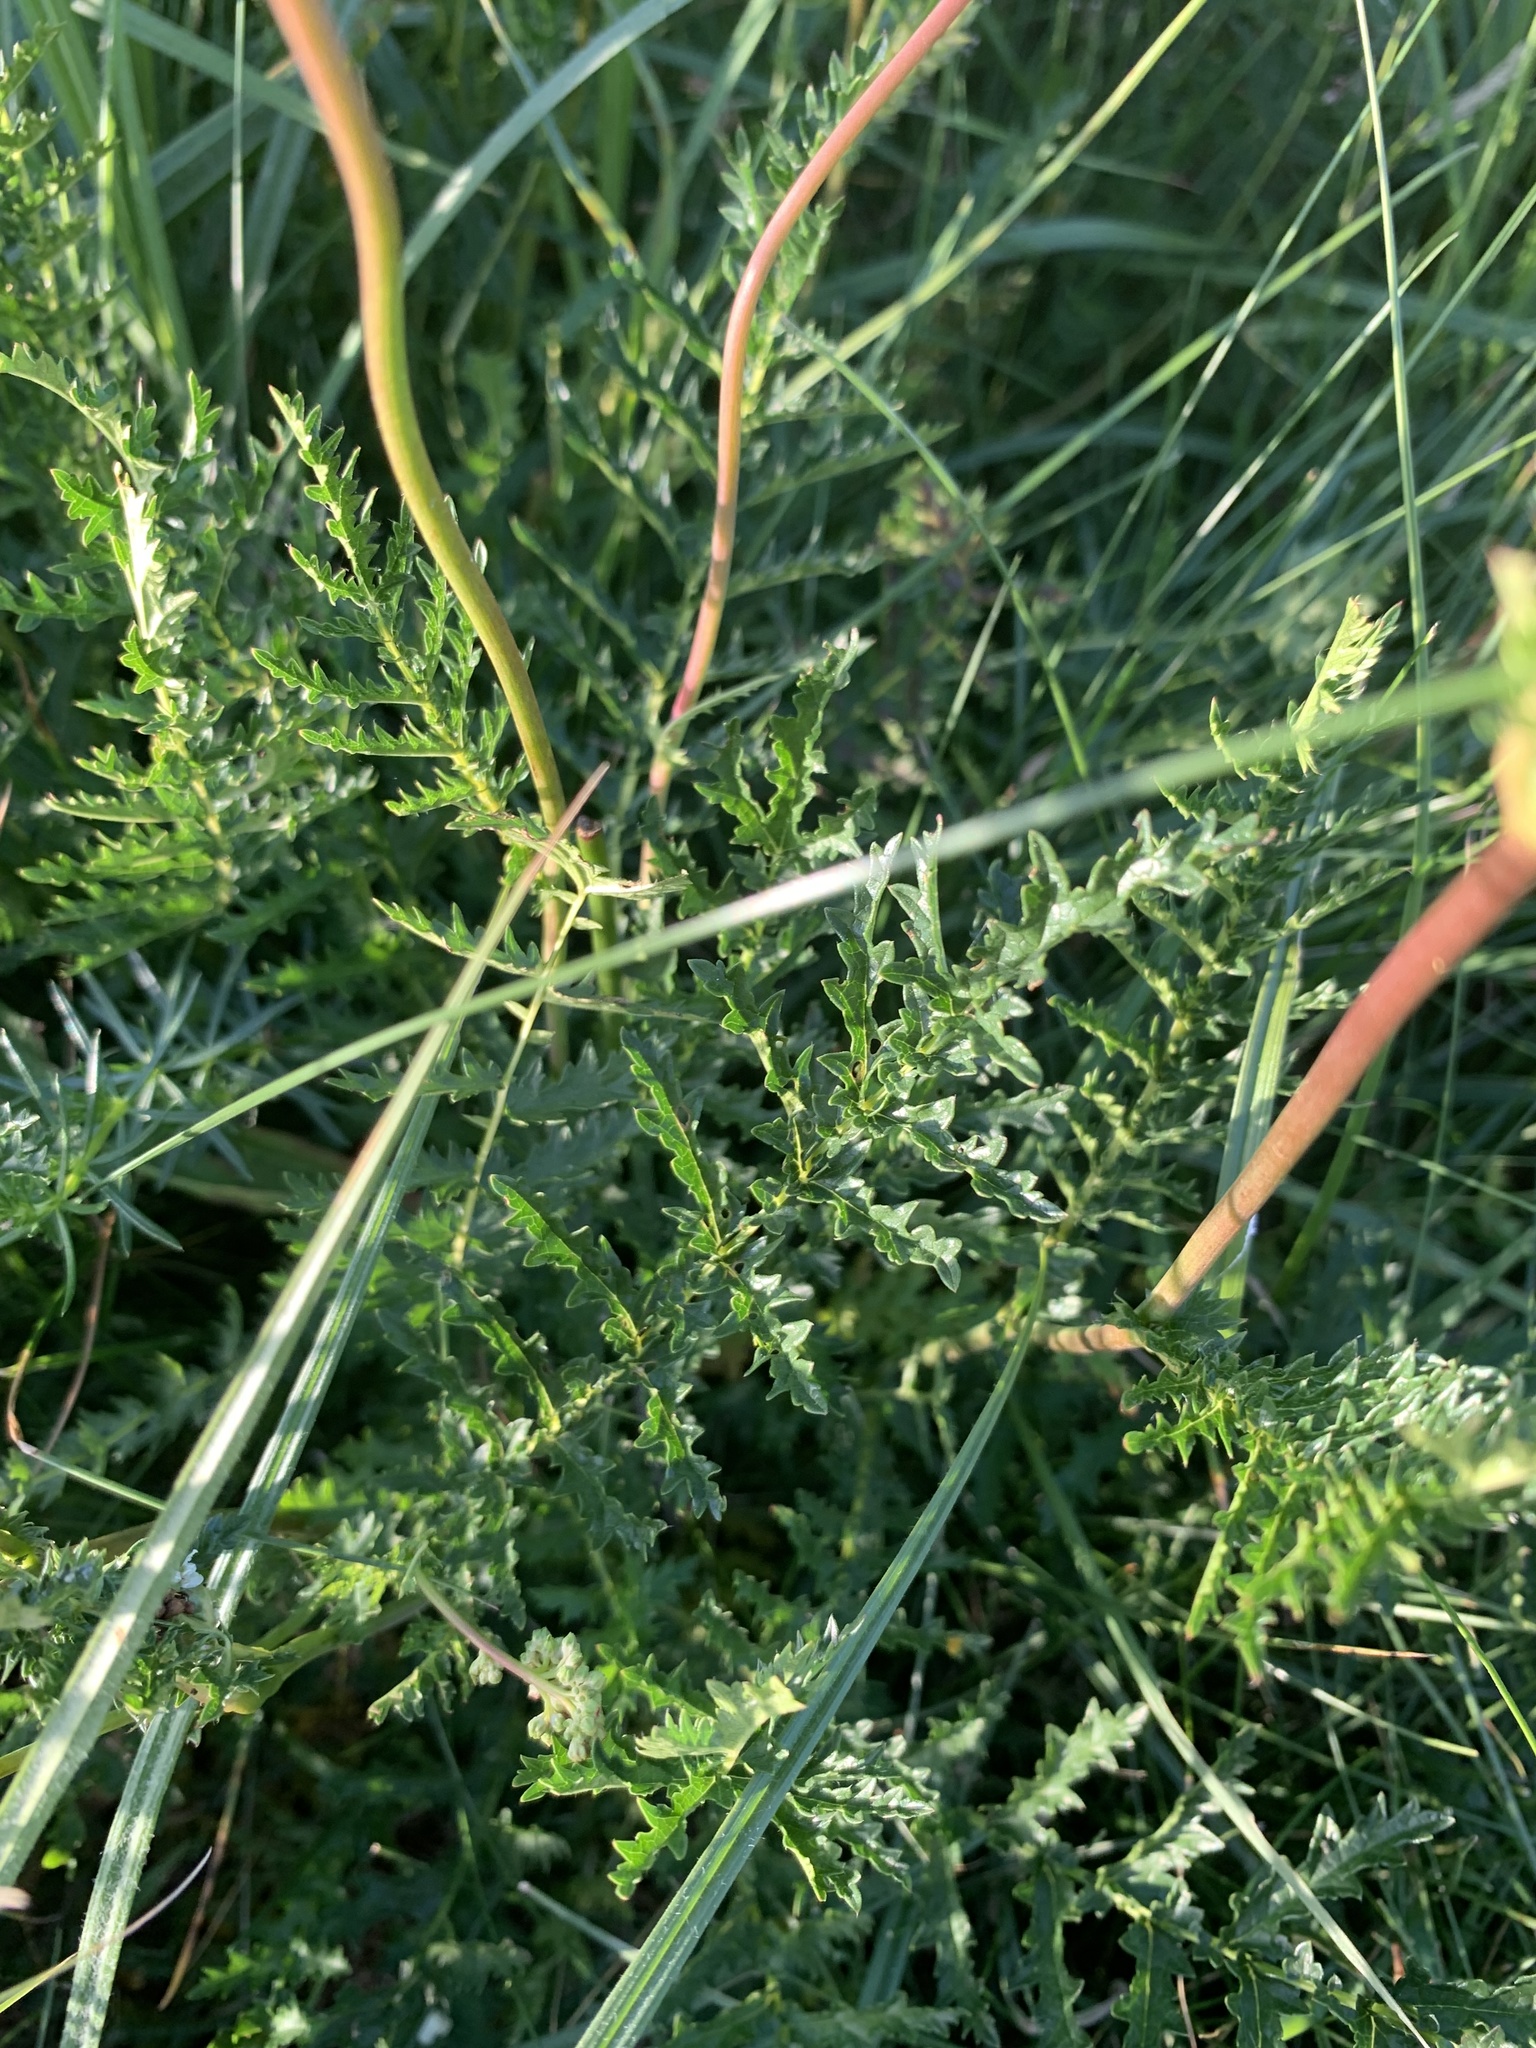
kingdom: Plantae
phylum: Tracheophyta
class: Magnoliopsida
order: Rosales
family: Rosaceae
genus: Filipendula
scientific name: Filipendula vulgaris
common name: Dropwort
